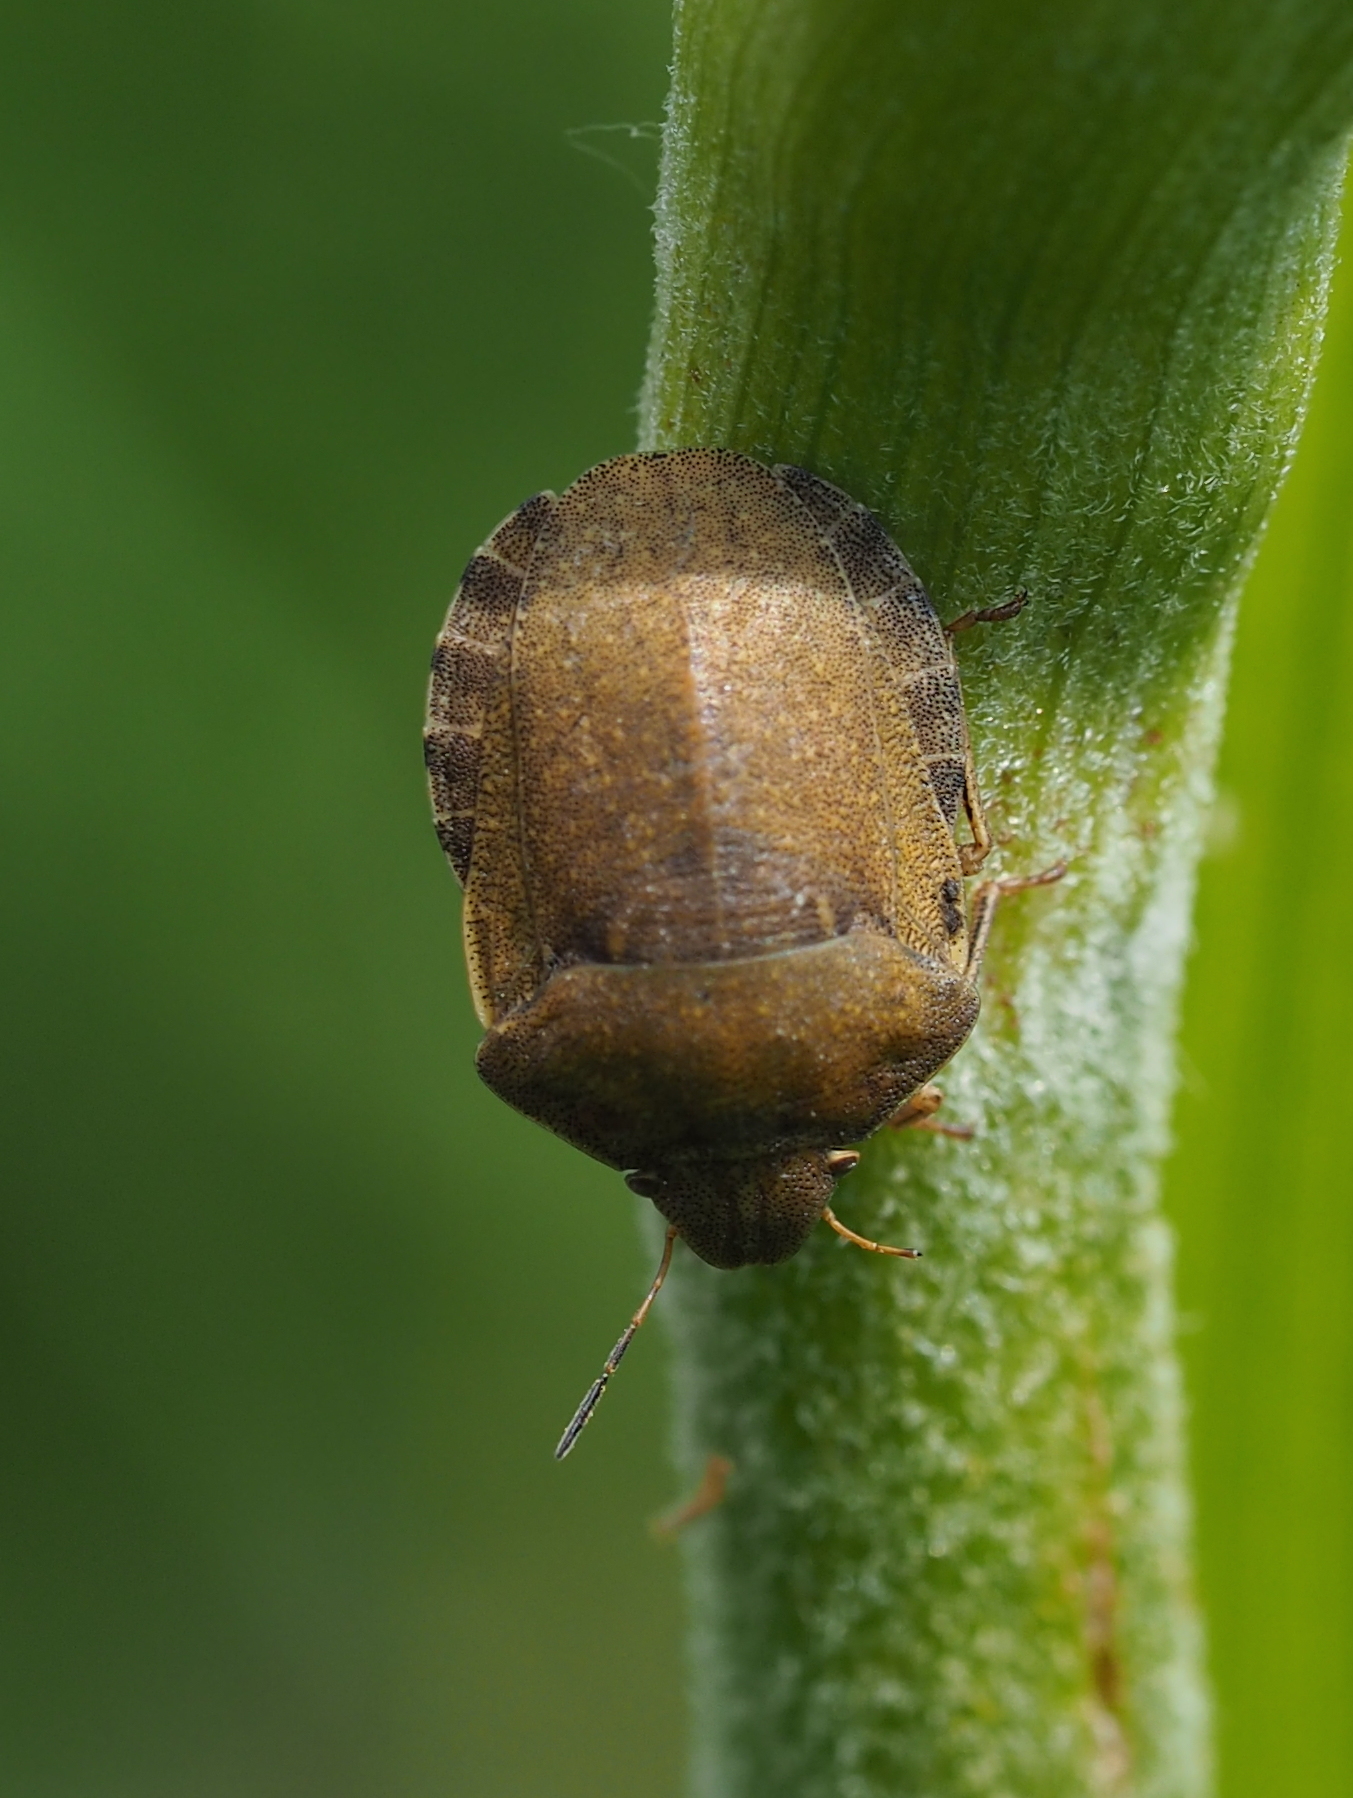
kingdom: Animalia
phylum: Arthropoda
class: Insecta
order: Hemiptera
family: Scutelleridae
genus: Eurygaster
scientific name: Eurygaster testudinaria
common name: Tortoise bug
